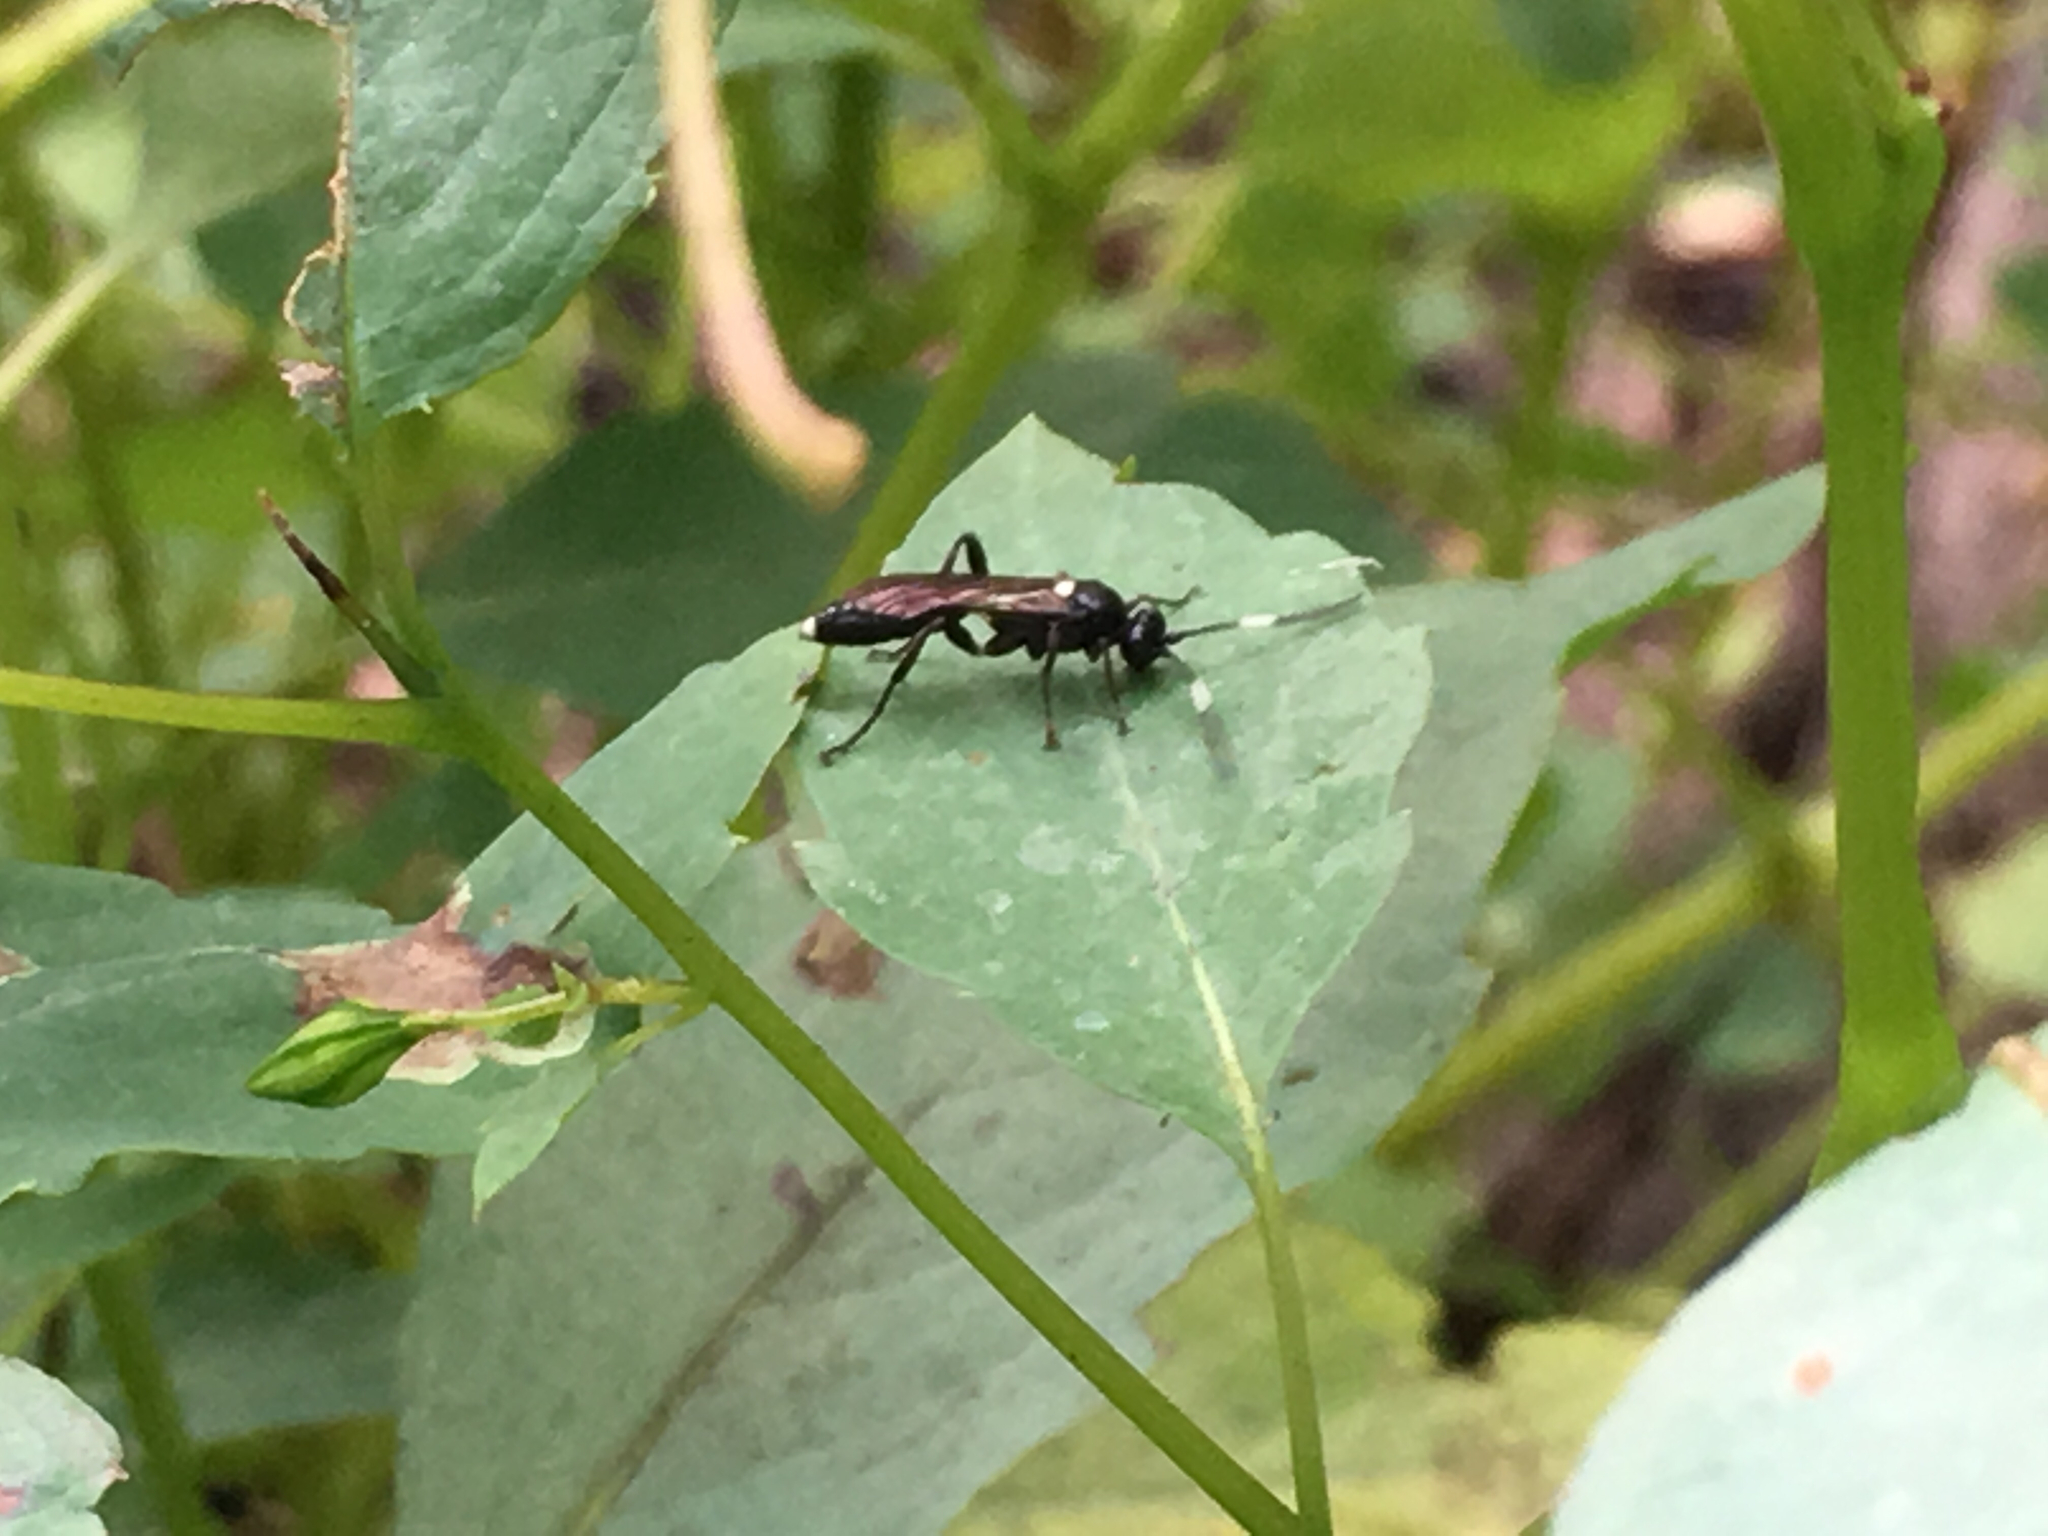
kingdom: Animalia
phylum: Arthropoda
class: Insecta
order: Hymenoptera
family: Ichneumonidae
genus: Vulgichneumon
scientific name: Vulgichneumon brevicinctor
